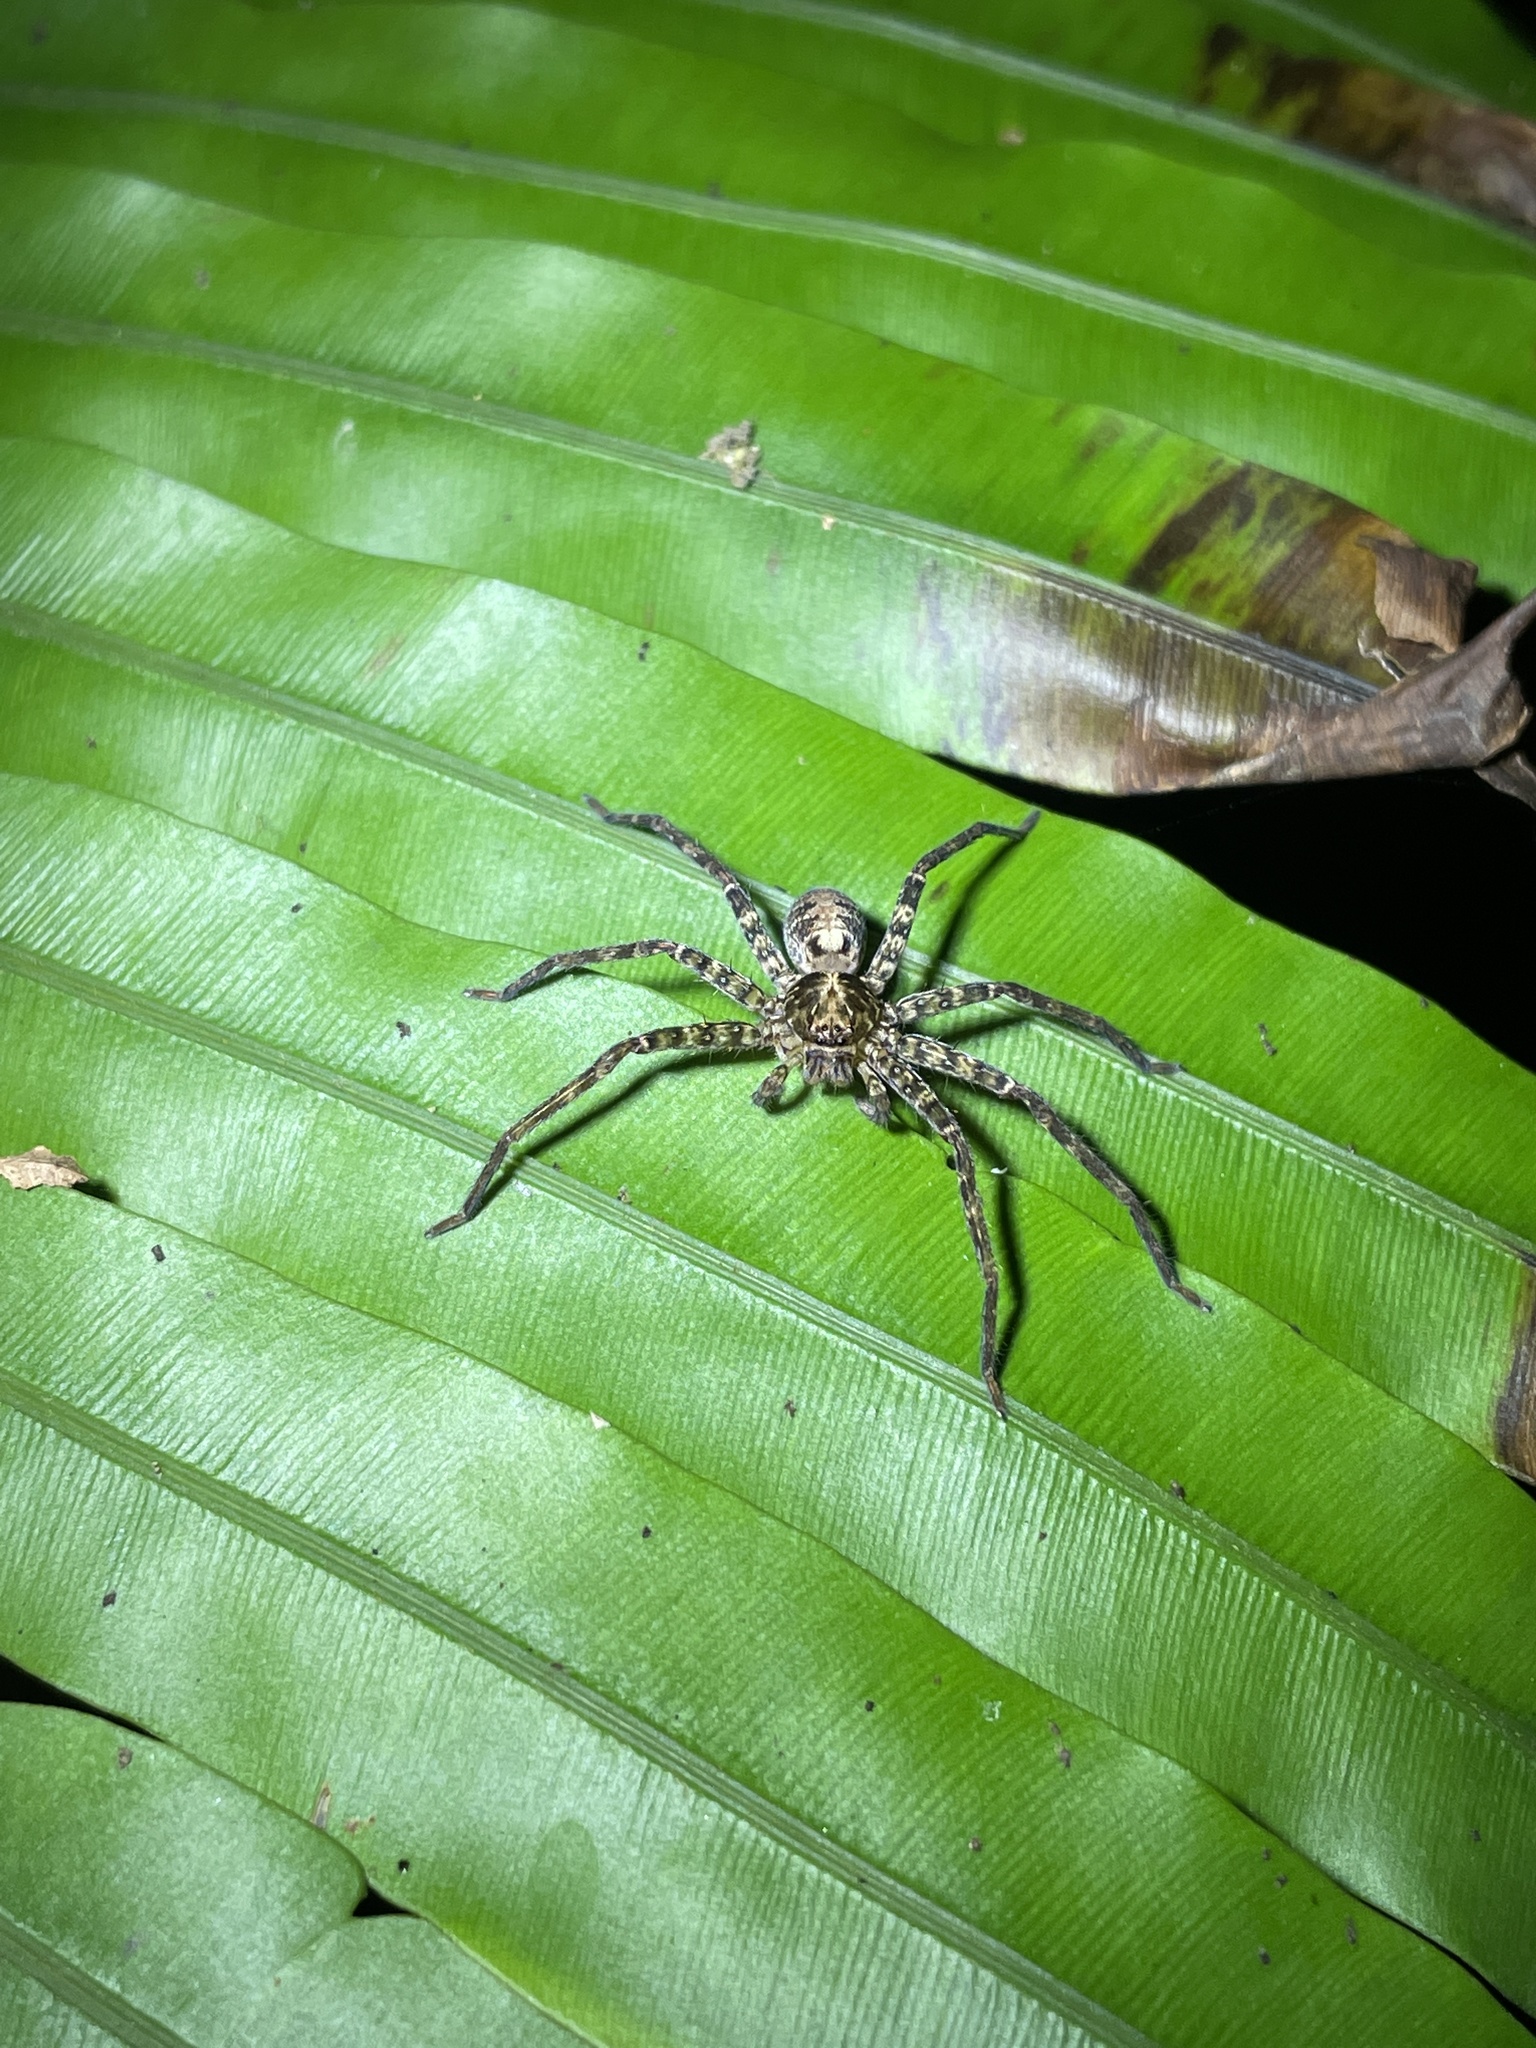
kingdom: Animalia
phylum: Arthropoda
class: Arachnida
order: Araneae
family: Sparassidae
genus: Heteropoda
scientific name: Heteropoda amphora
